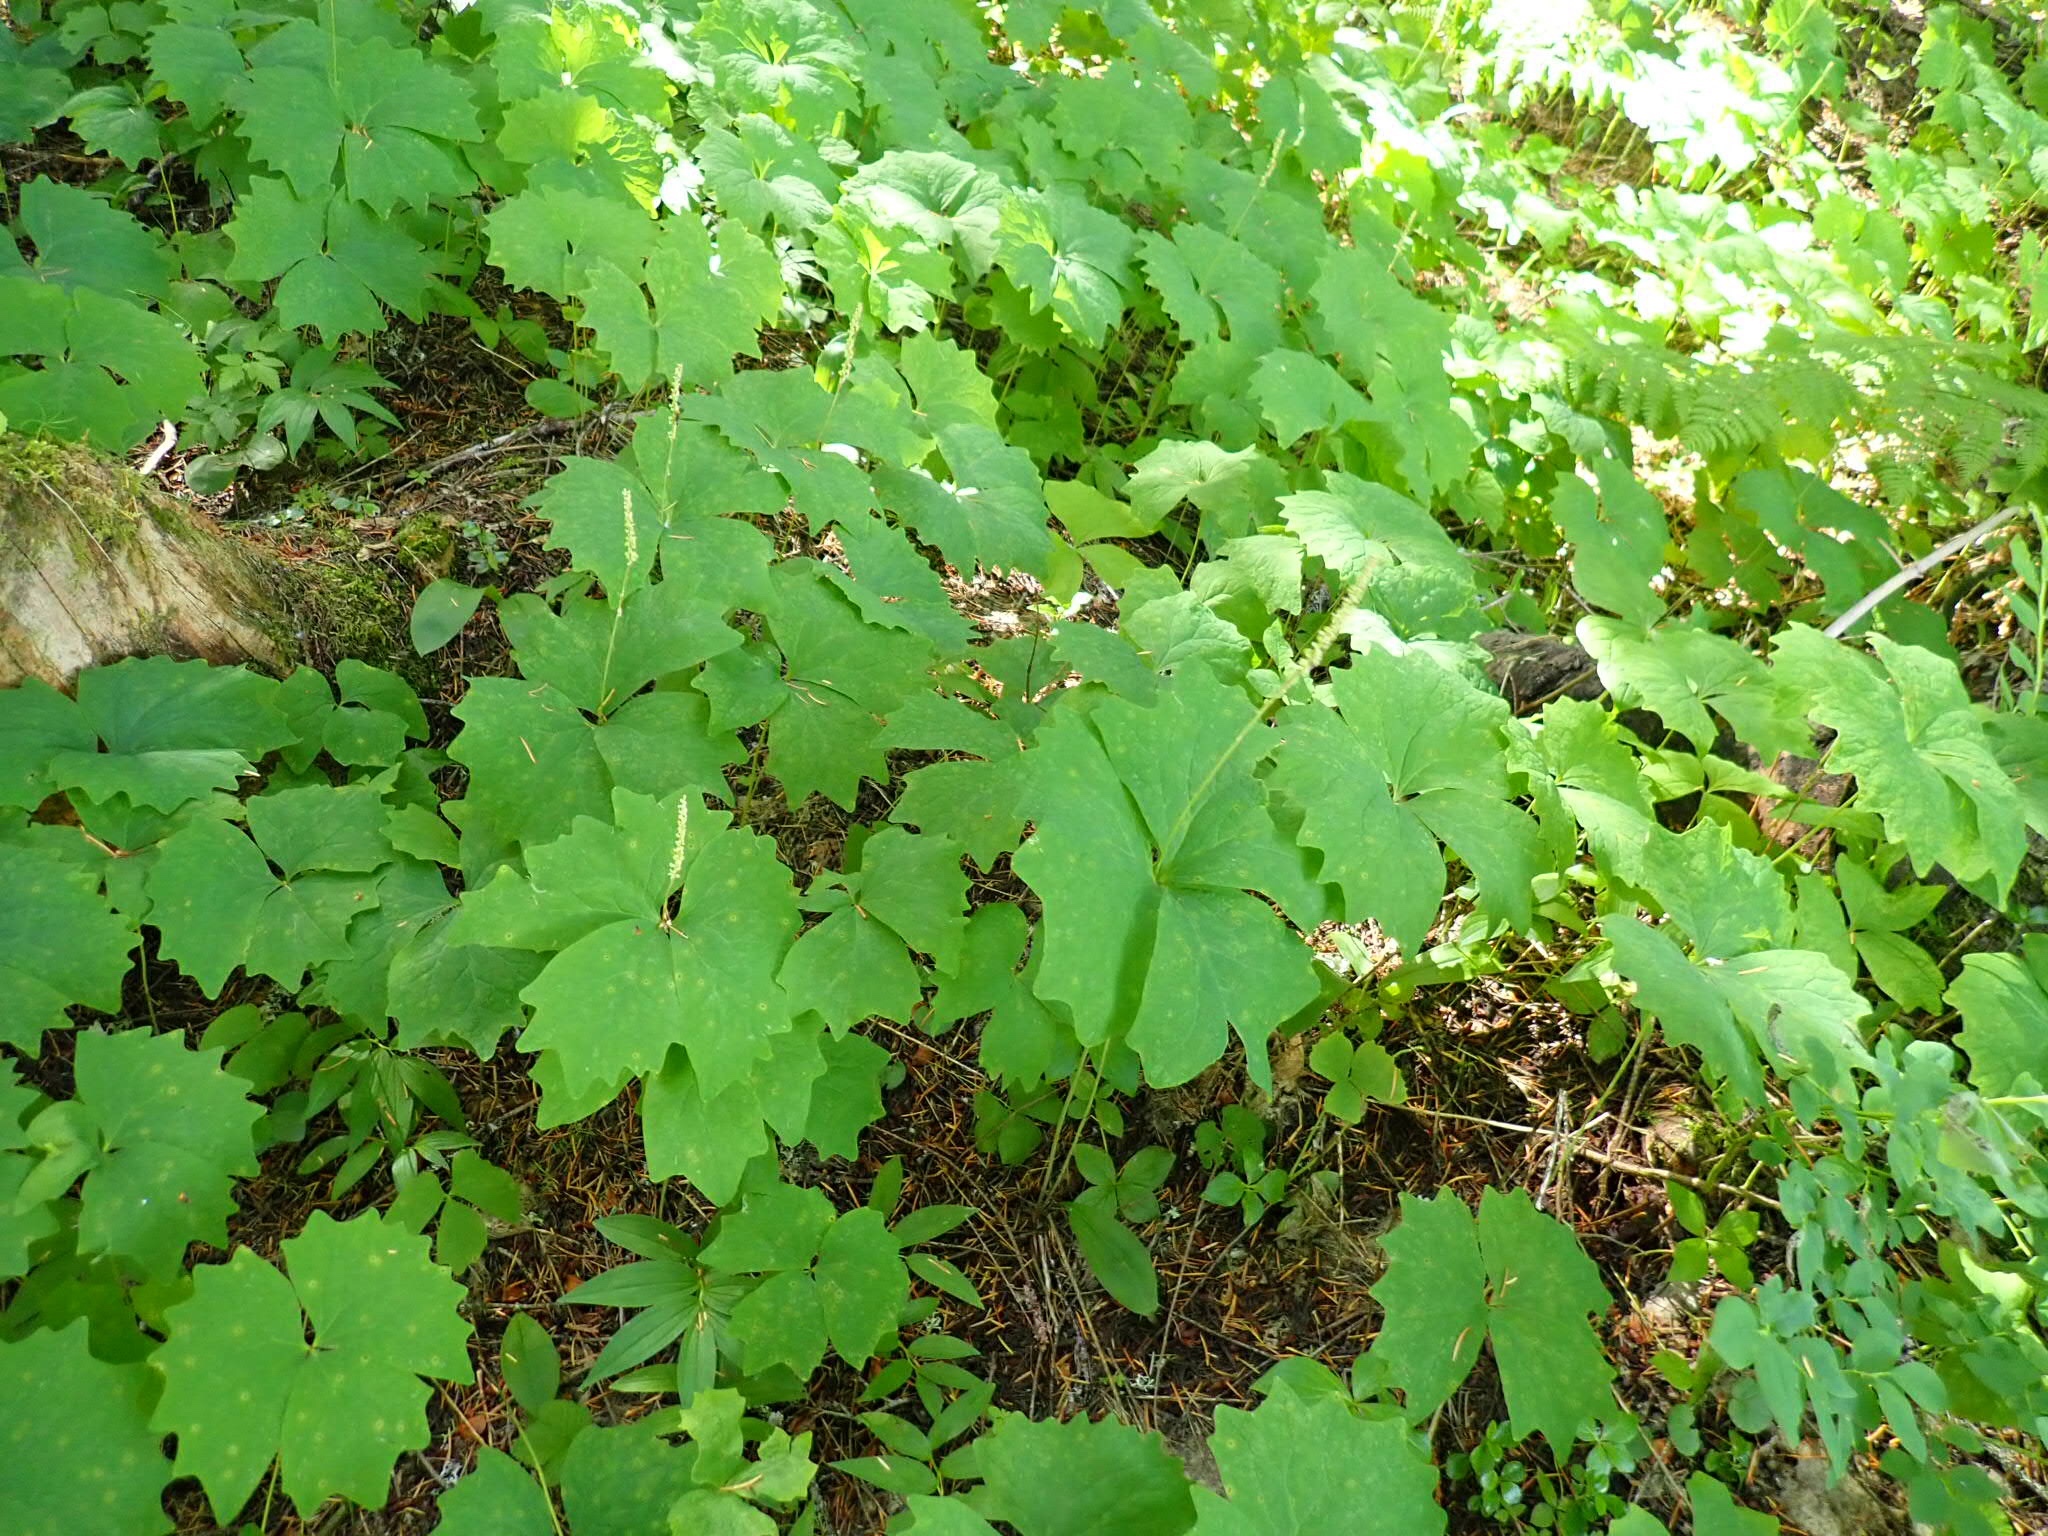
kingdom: Plantae
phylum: Tracheophyta
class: Magnoliopsida
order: Ranunculales
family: Berberidaceae
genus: Achlys
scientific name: Achlys triphylla
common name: Vanilla-leaf
